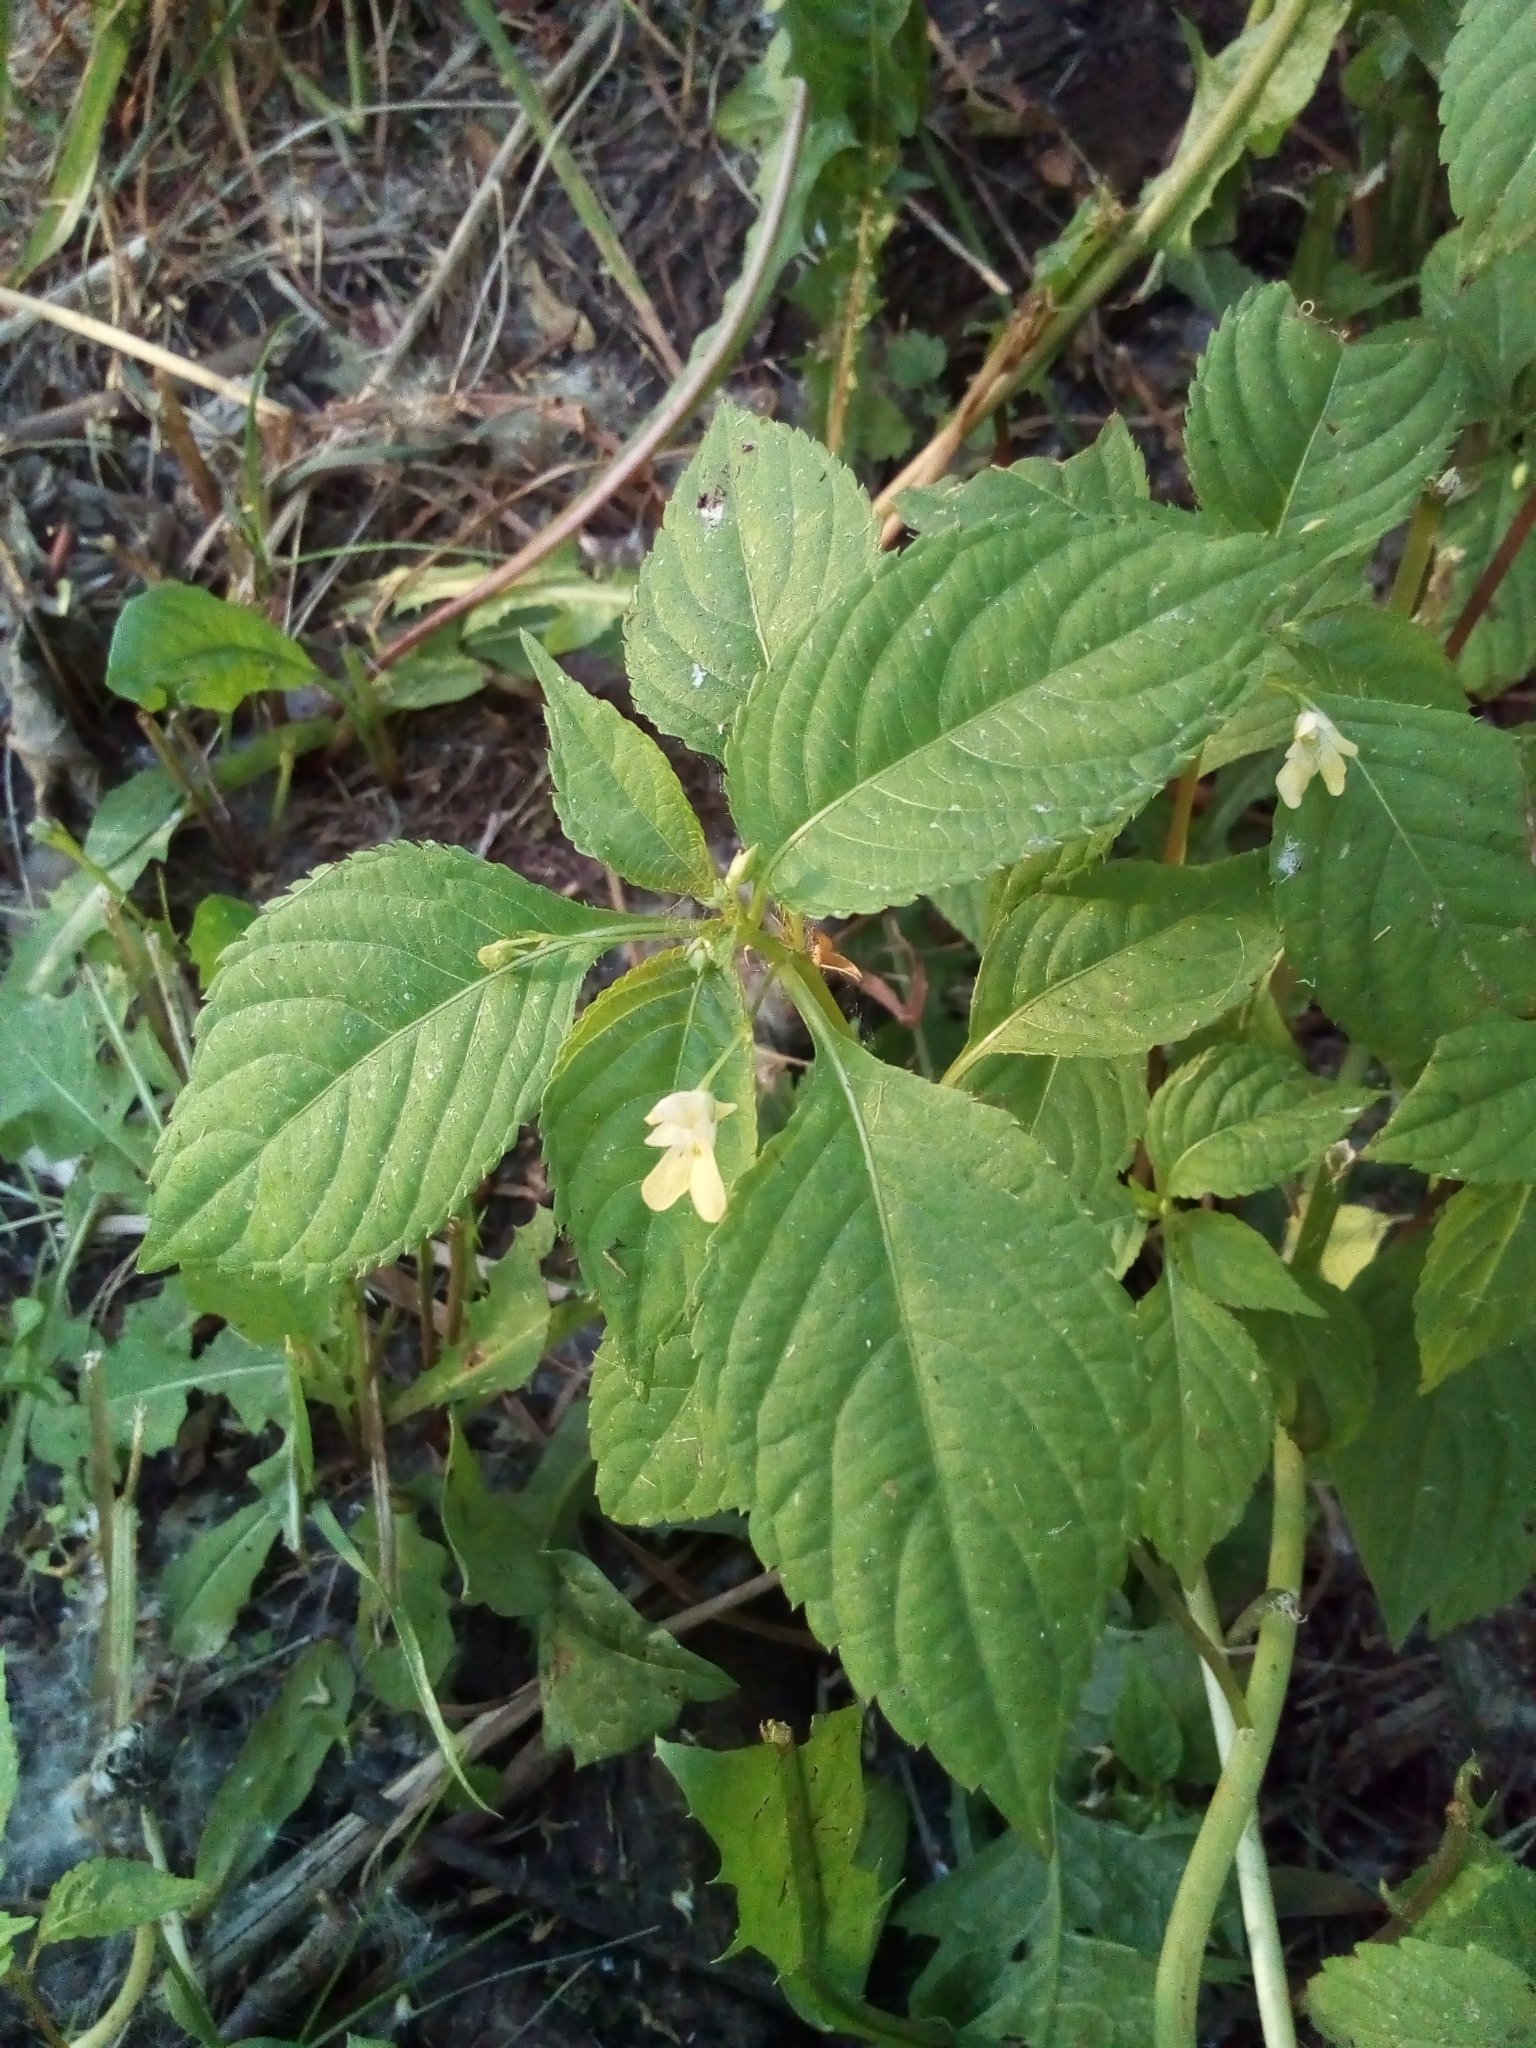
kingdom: Plantae
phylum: Tracheophyta
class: Magnoliopsida
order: Ericales
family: Balsaminaceae
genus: Impatiens
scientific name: Impatiens parviflora
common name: Small balsam
